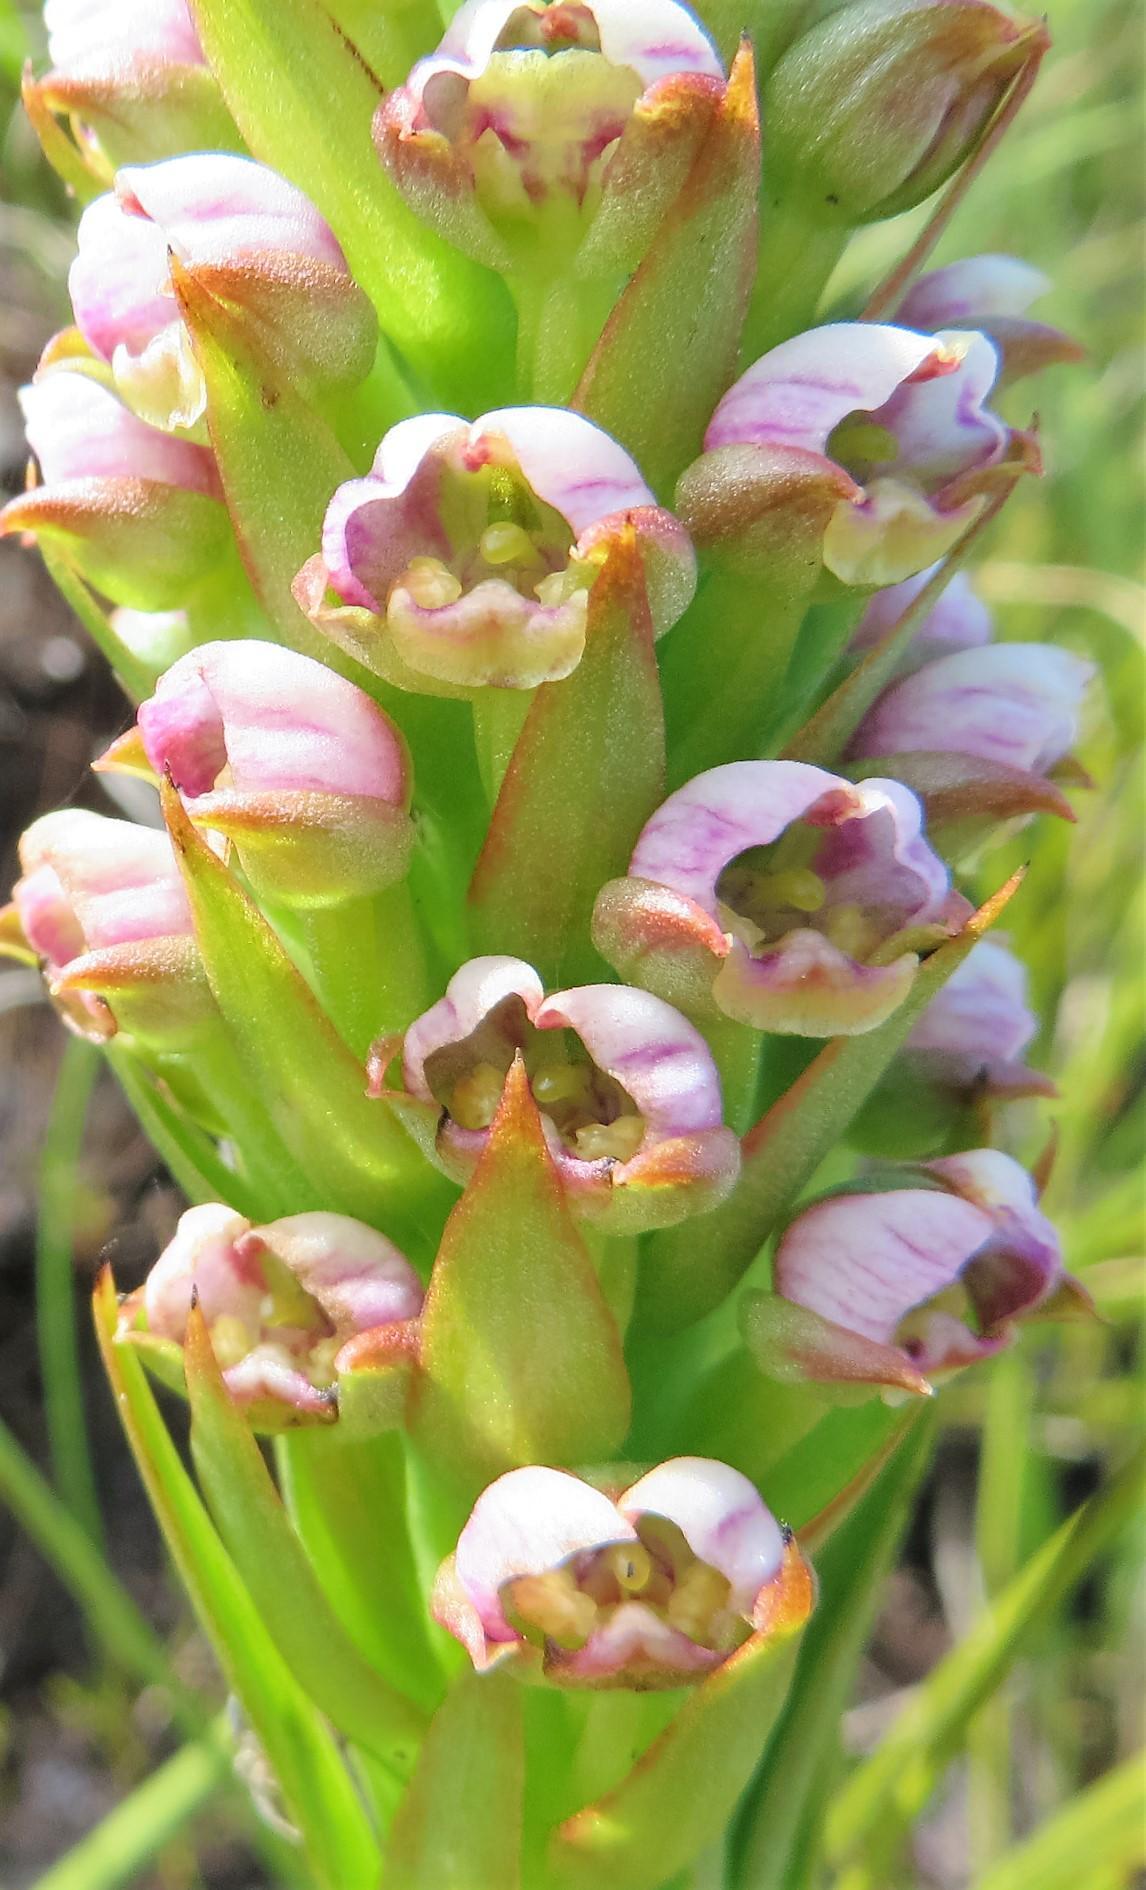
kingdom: Plantae
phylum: Tracheophyta
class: Liliopsida
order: Asparagales
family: Orchidaceae
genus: Evotella
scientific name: Evotella carnosa
